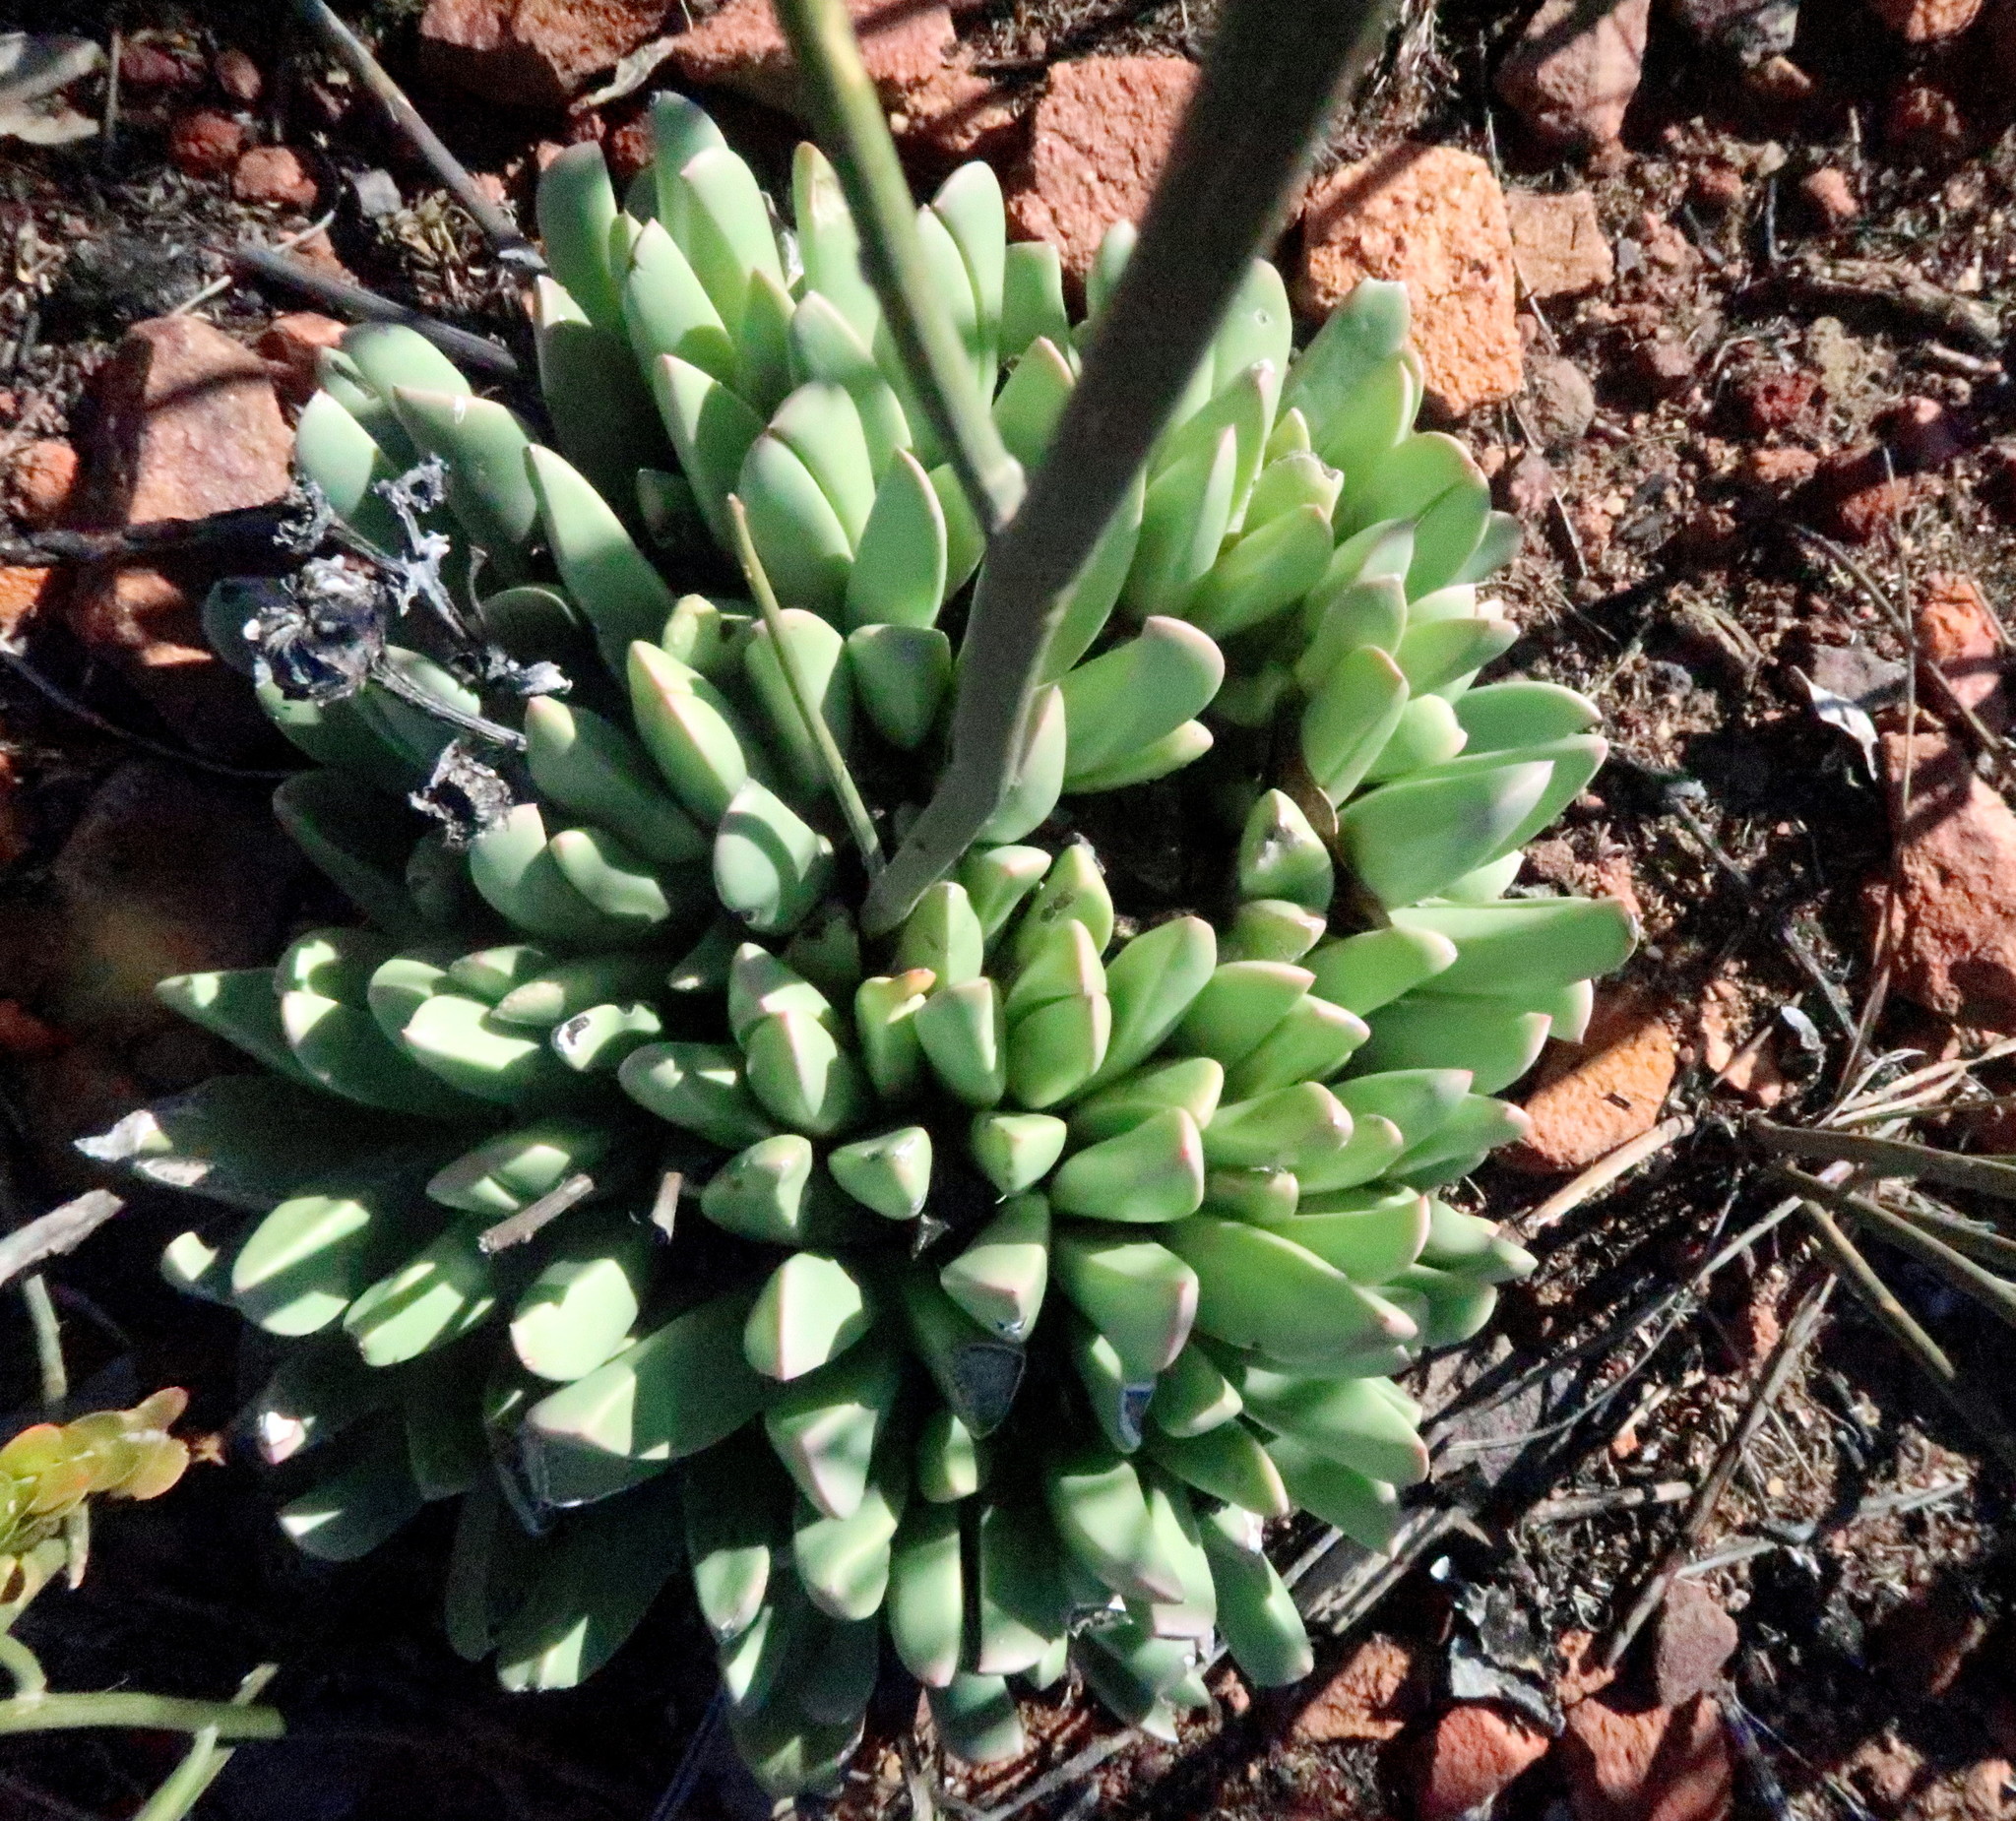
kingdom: Plantae
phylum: Tracheophyta
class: Magnoliopsida
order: Caryophyllales
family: Aizoaceae
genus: Machairophyllum
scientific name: Machairophyllum albidum
